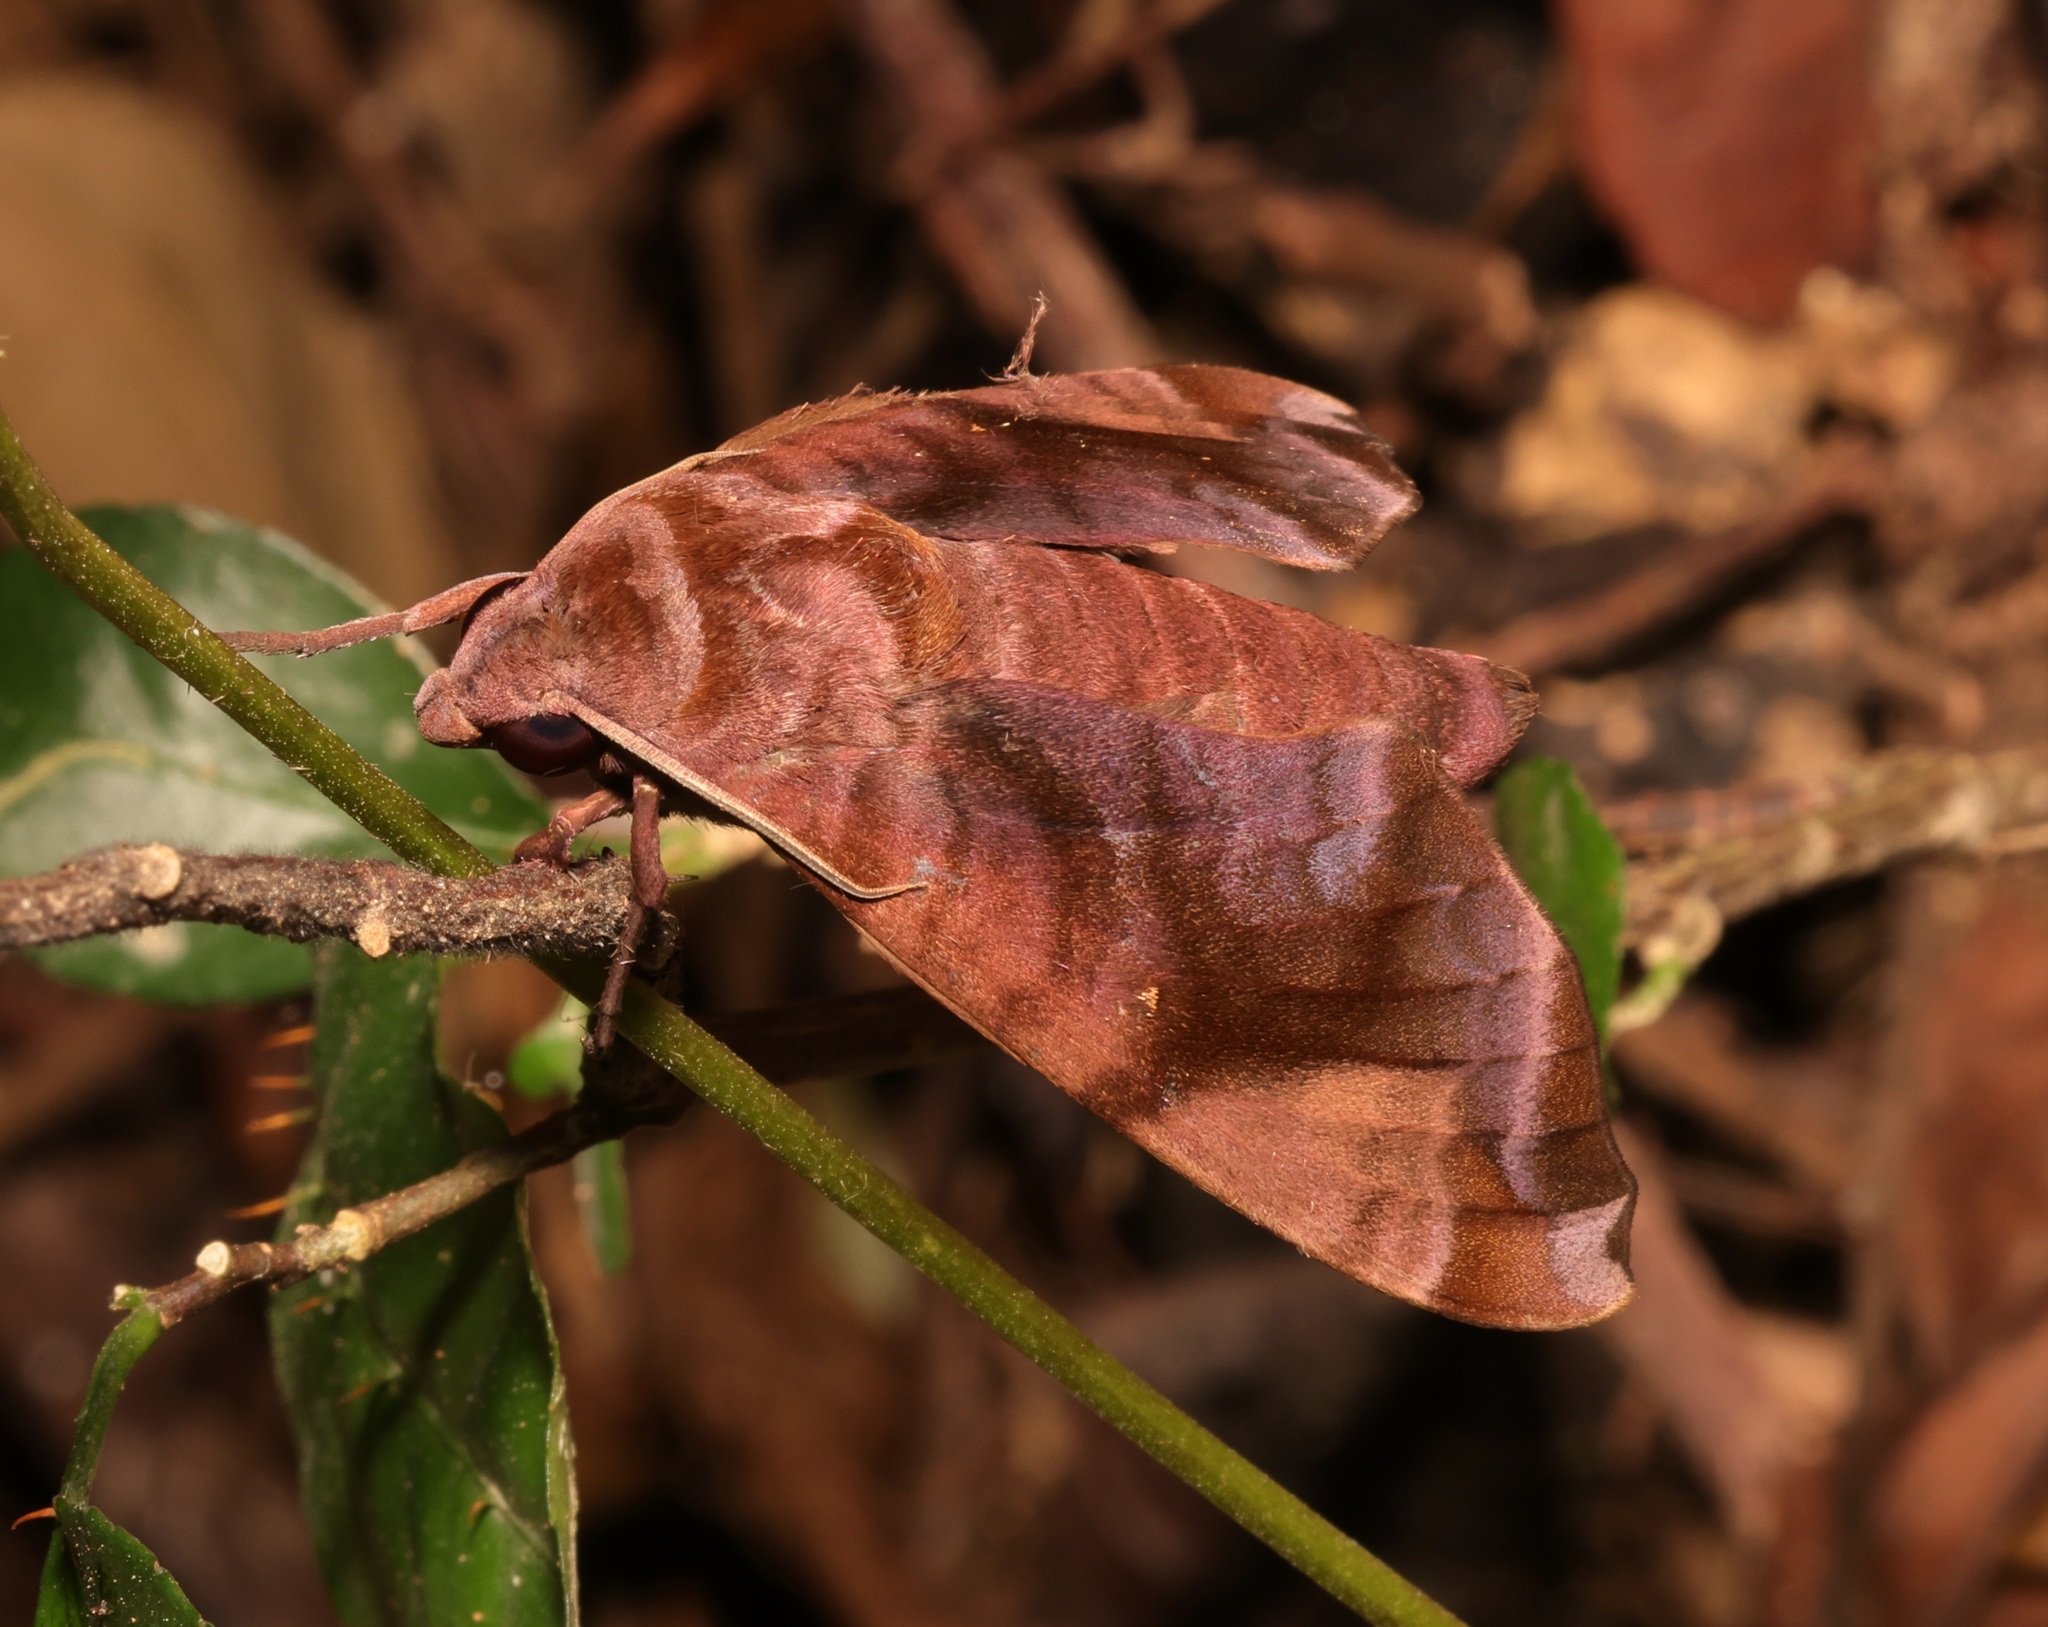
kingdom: Animalia
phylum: Arthropoda
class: Insecta
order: Lepidoptera
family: Sphingidae
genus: Acosmeryx
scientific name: Acosmeryx anceus
